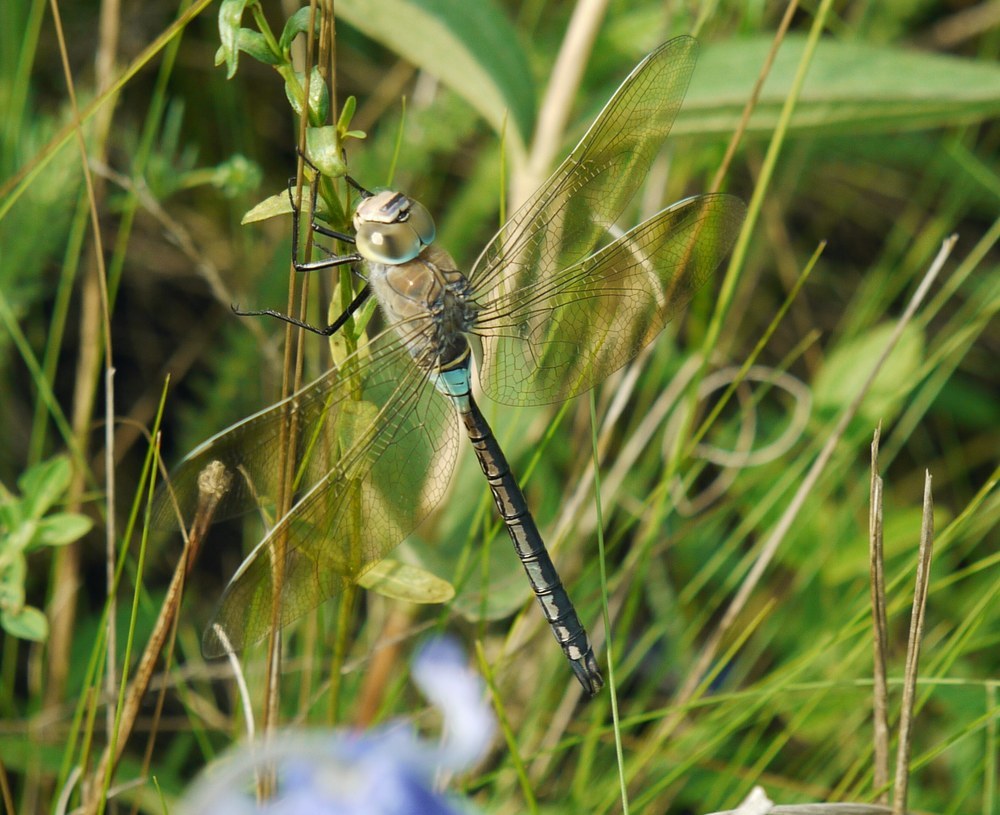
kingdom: Animalia
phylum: Arthropoda
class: Insecta
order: Odonata
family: Aeshnidae
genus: Anax
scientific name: Anax parthenope
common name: Lesser emperor
